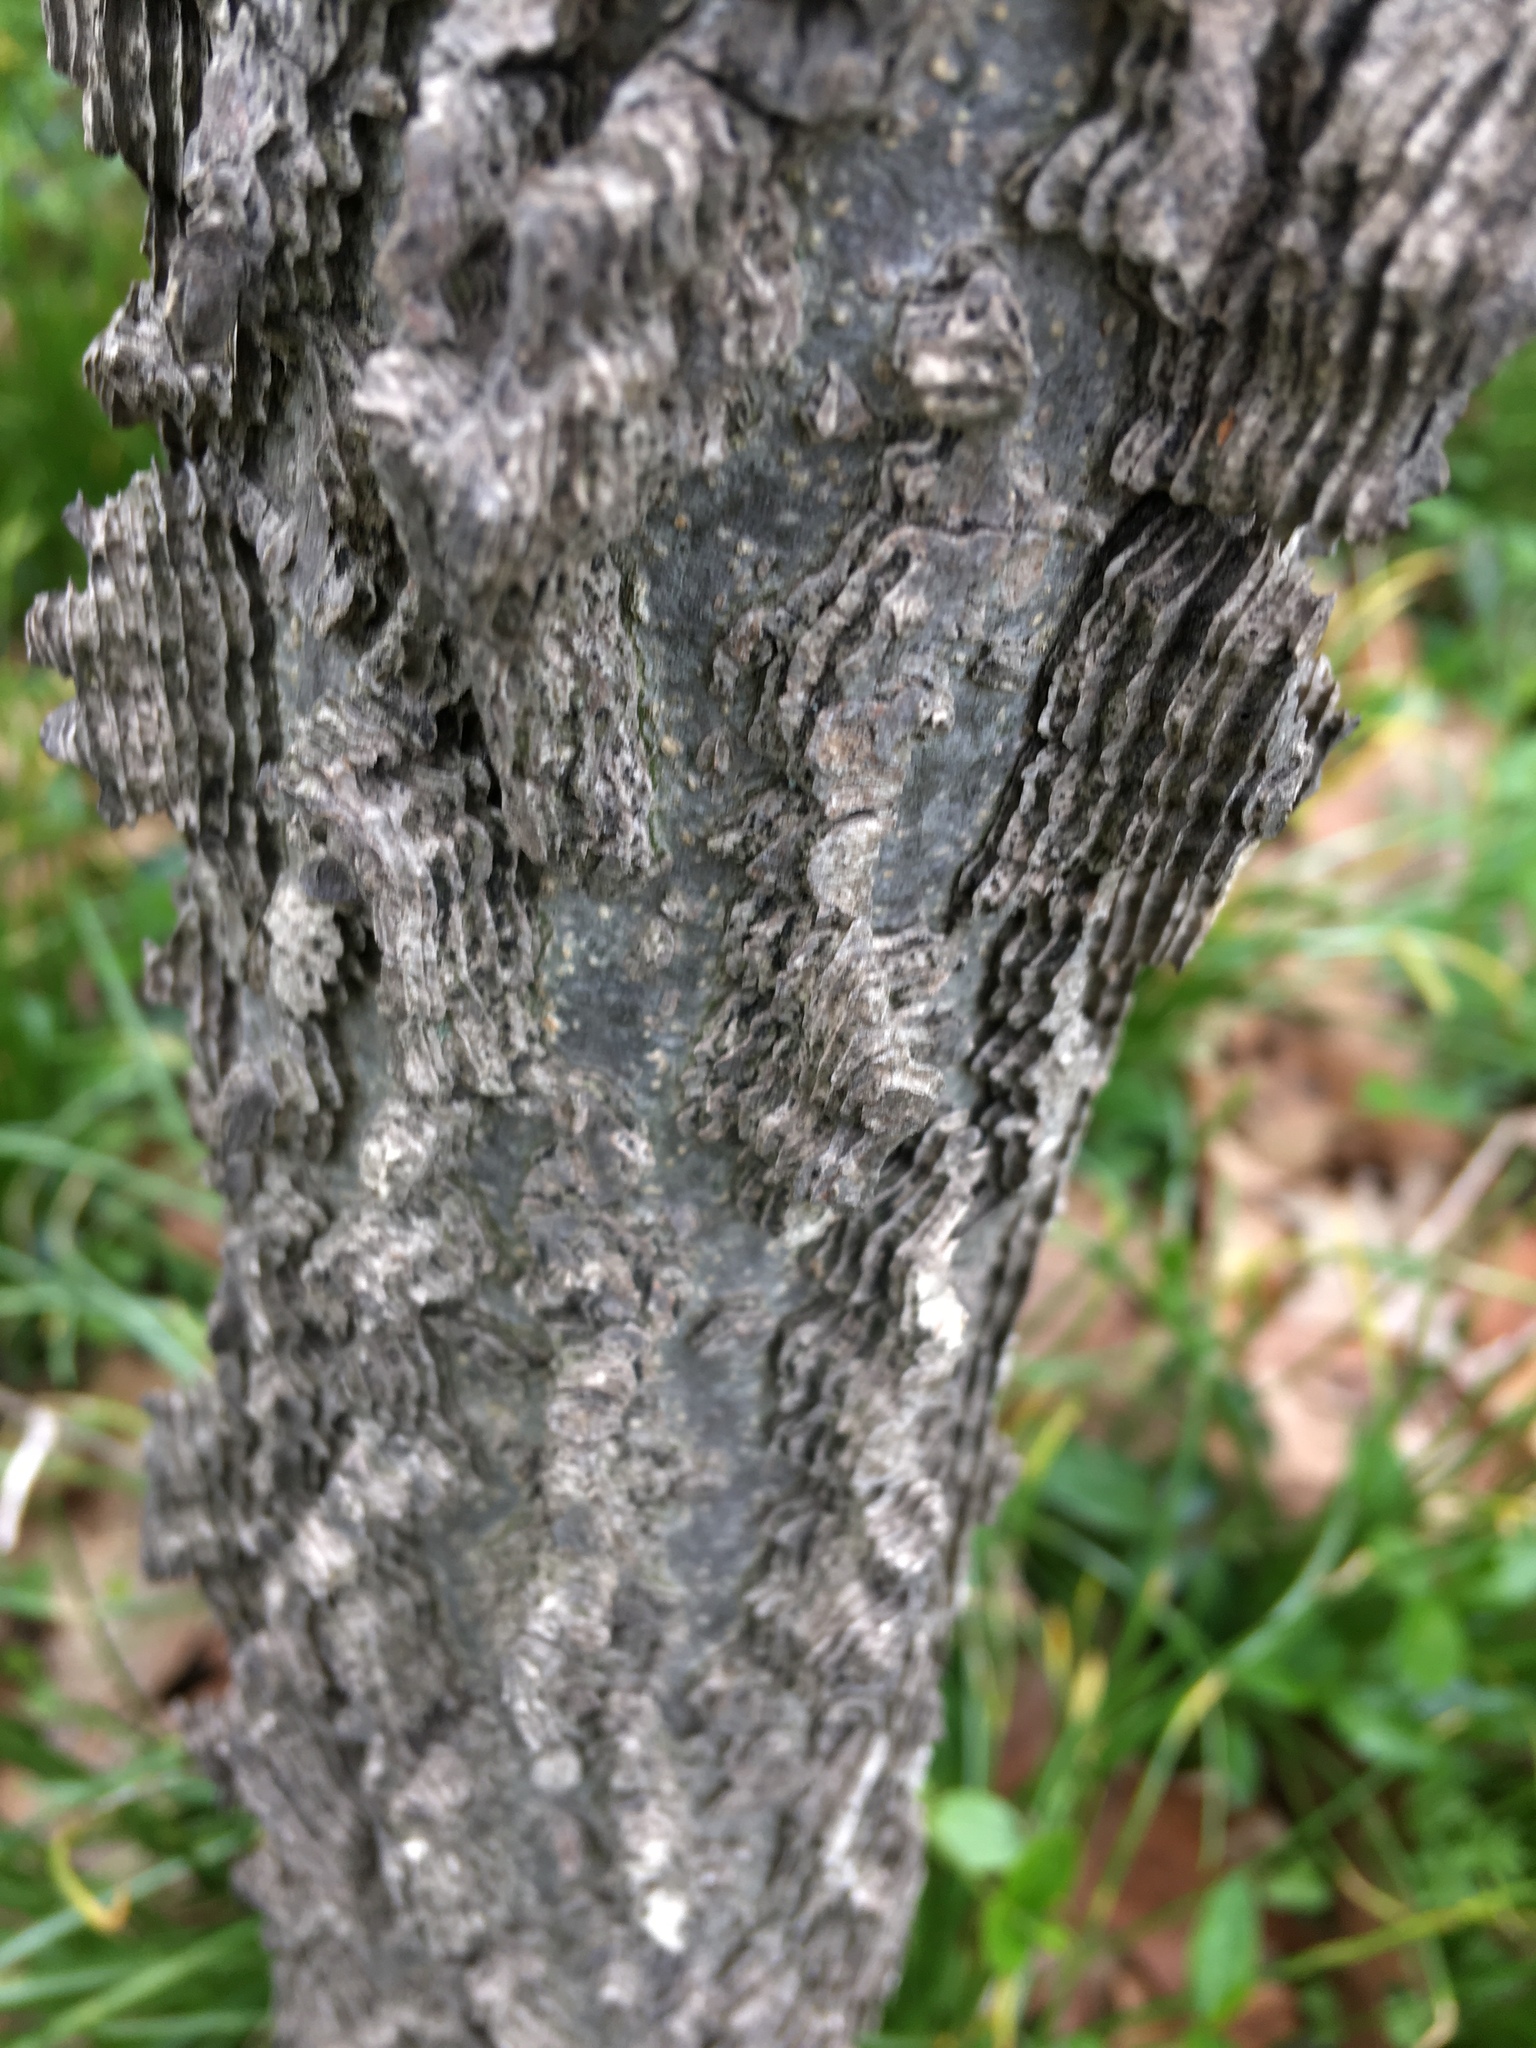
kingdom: Plantae
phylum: Tracheophyta
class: Magnoliopsida
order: Rosales
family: Cannabaceae
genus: Celtis
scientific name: Celtis occidentalis
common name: Common hackberry
